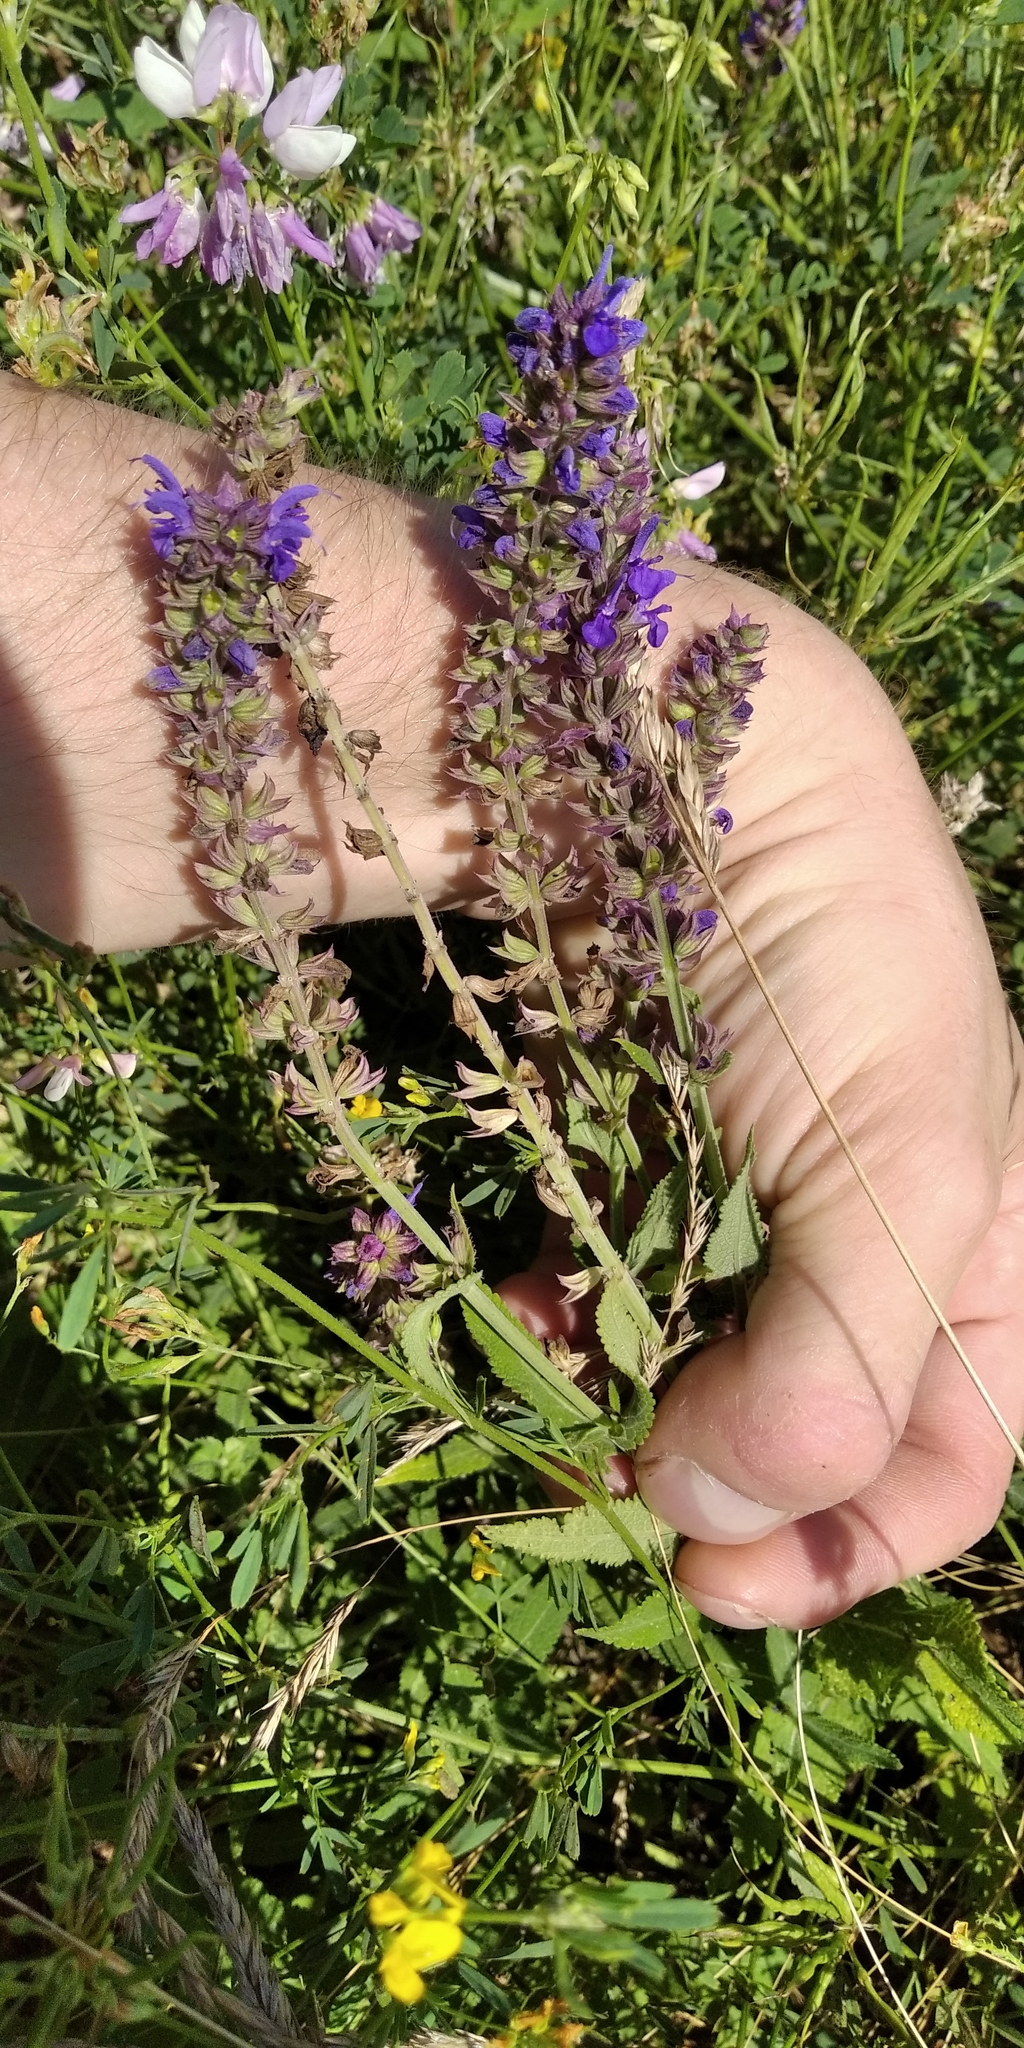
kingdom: Plantae
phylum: Tracheophyta
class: Magnoliopsida
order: Lamiales
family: Lamiaceae
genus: Salvia
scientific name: Salvia nemorosa
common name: Balkan clary
